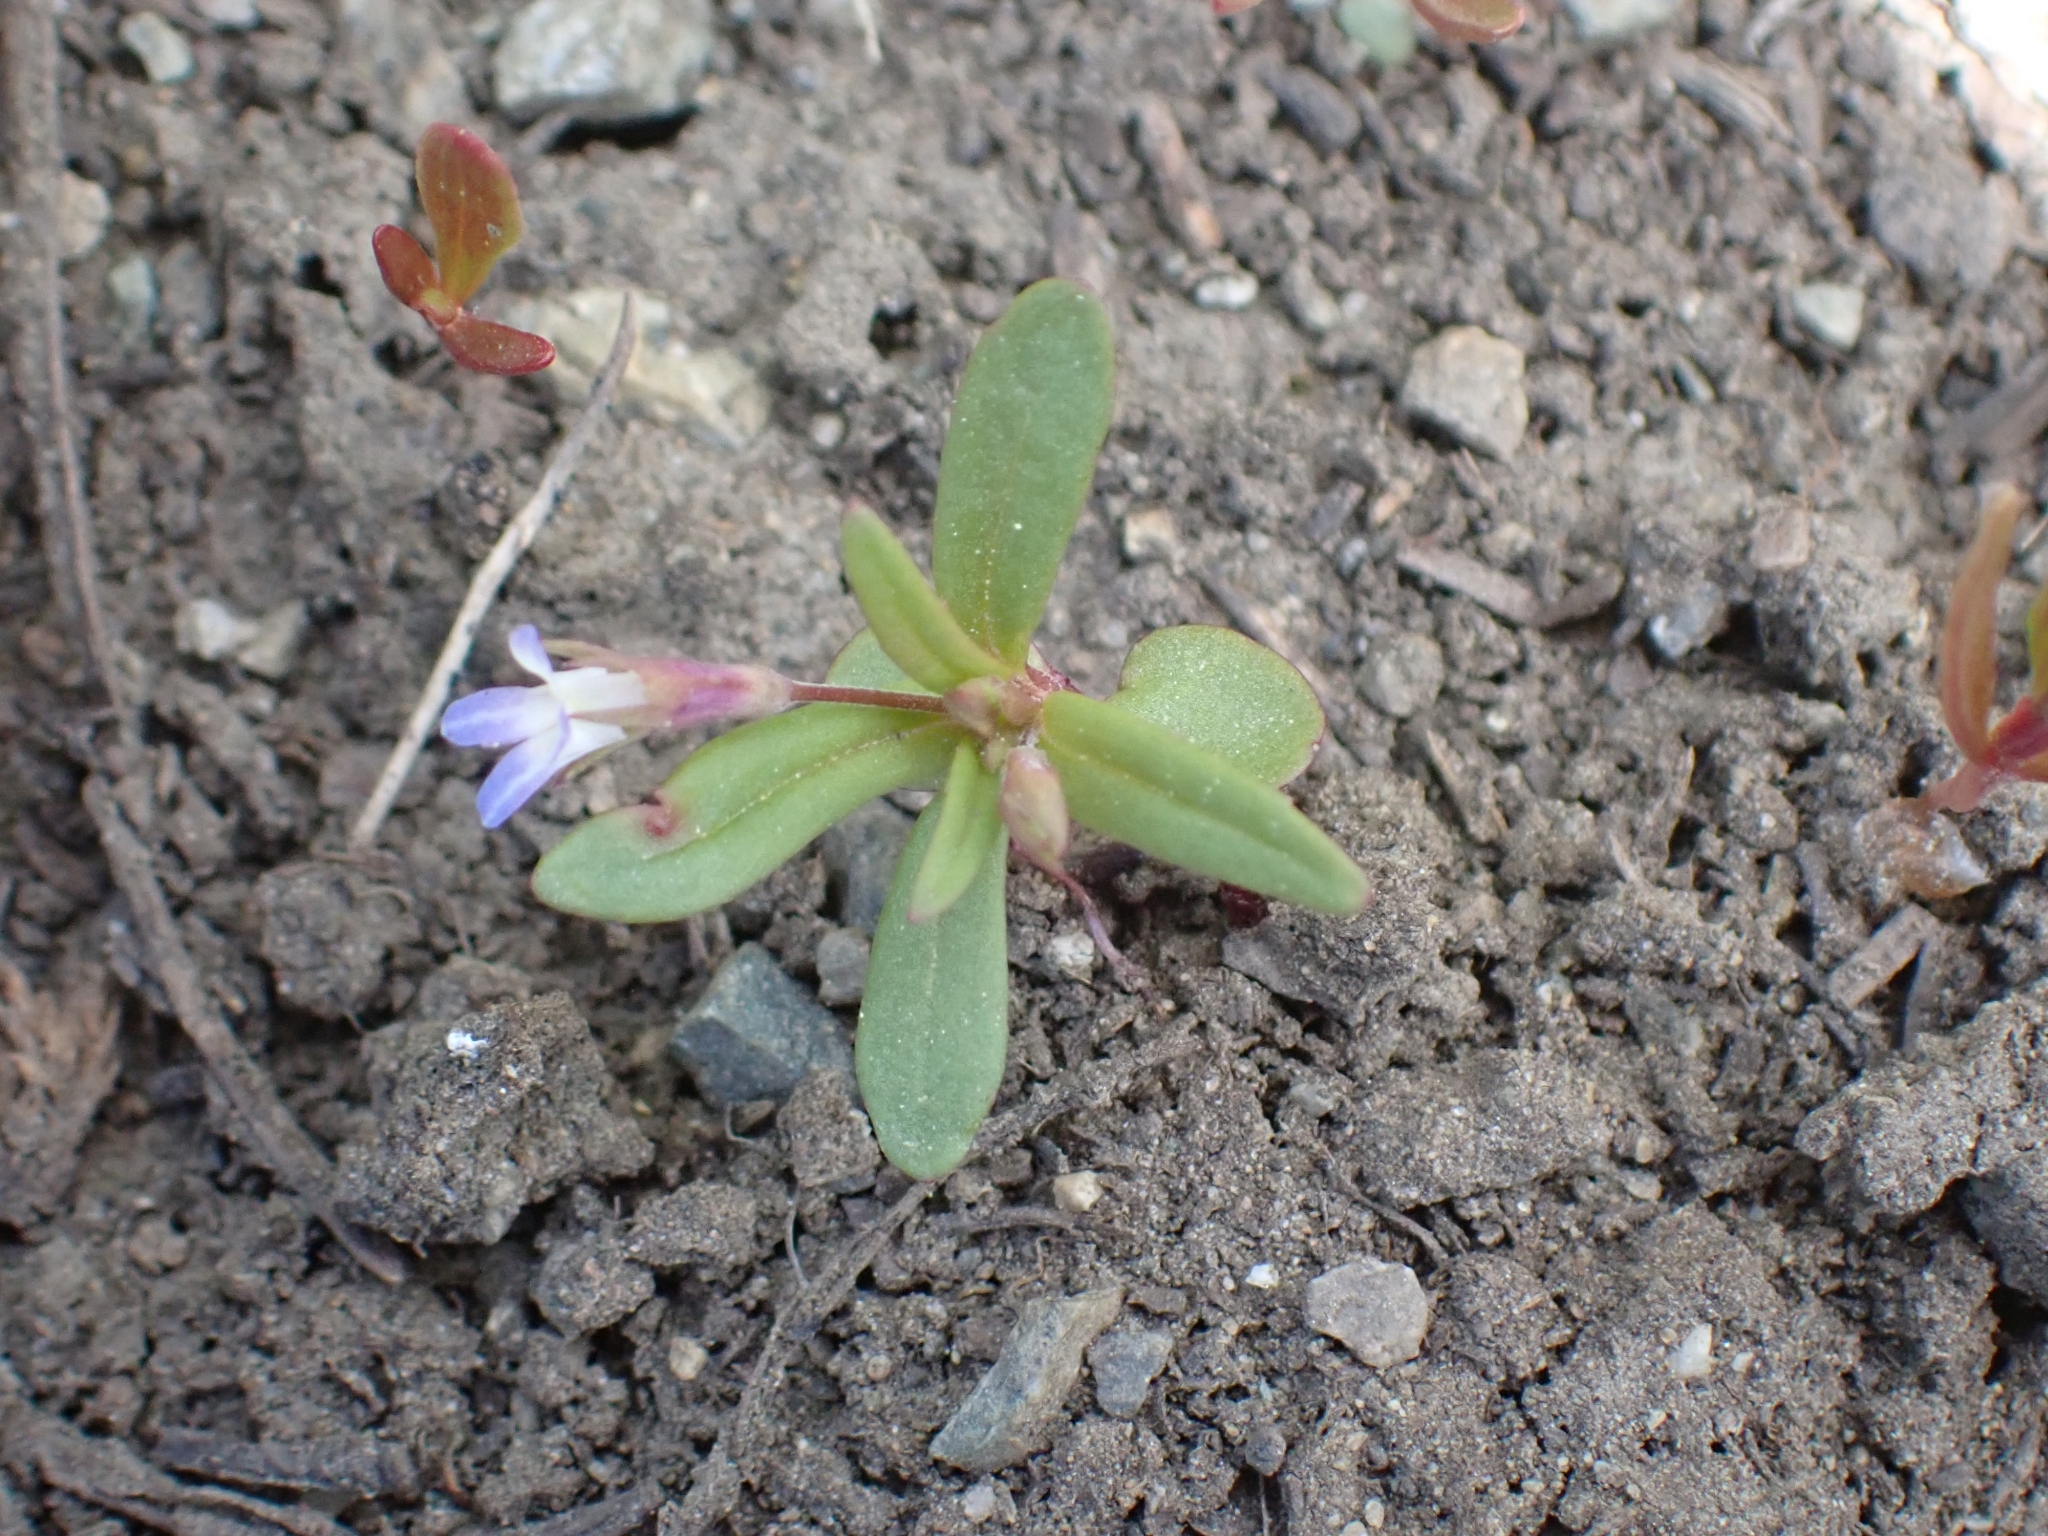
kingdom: Plantae
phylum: Tracheophyta
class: Magnoliopsida
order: Lamiales
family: Plantaginaceae
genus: Collinsia
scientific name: Collinsia parviflora
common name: Blue-lips
